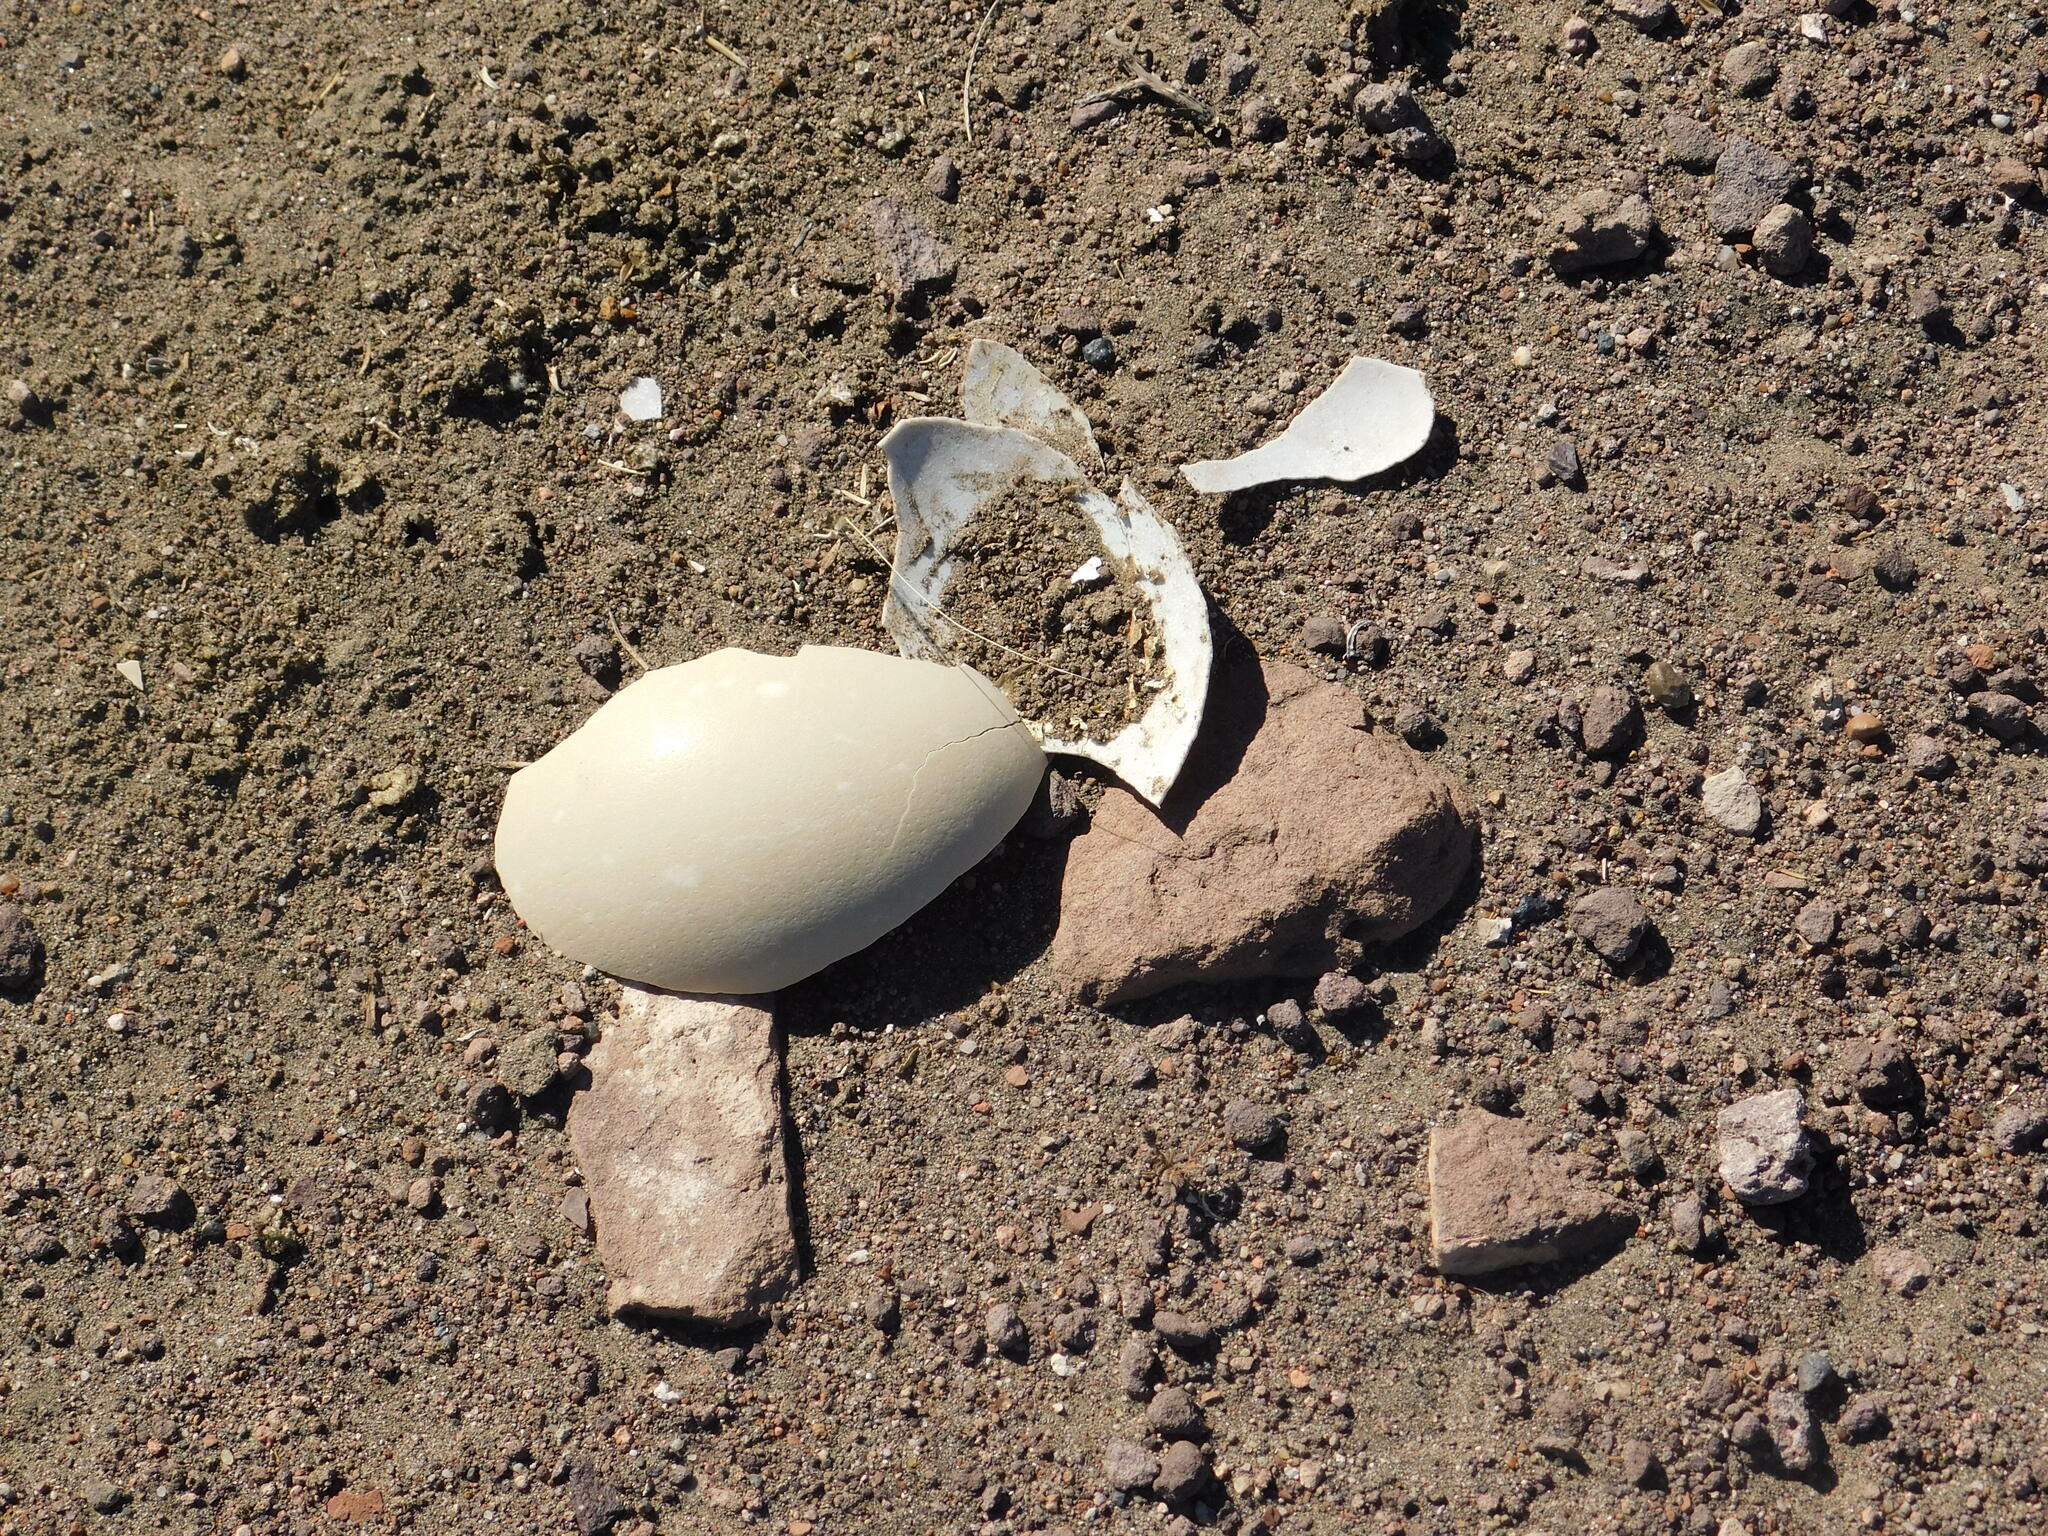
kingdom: Animalia
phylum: Chordata
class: Aves
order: Rheiformes
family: Rheidae
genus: Rhea
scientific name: Rhea pennata
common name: Lesser rhea
